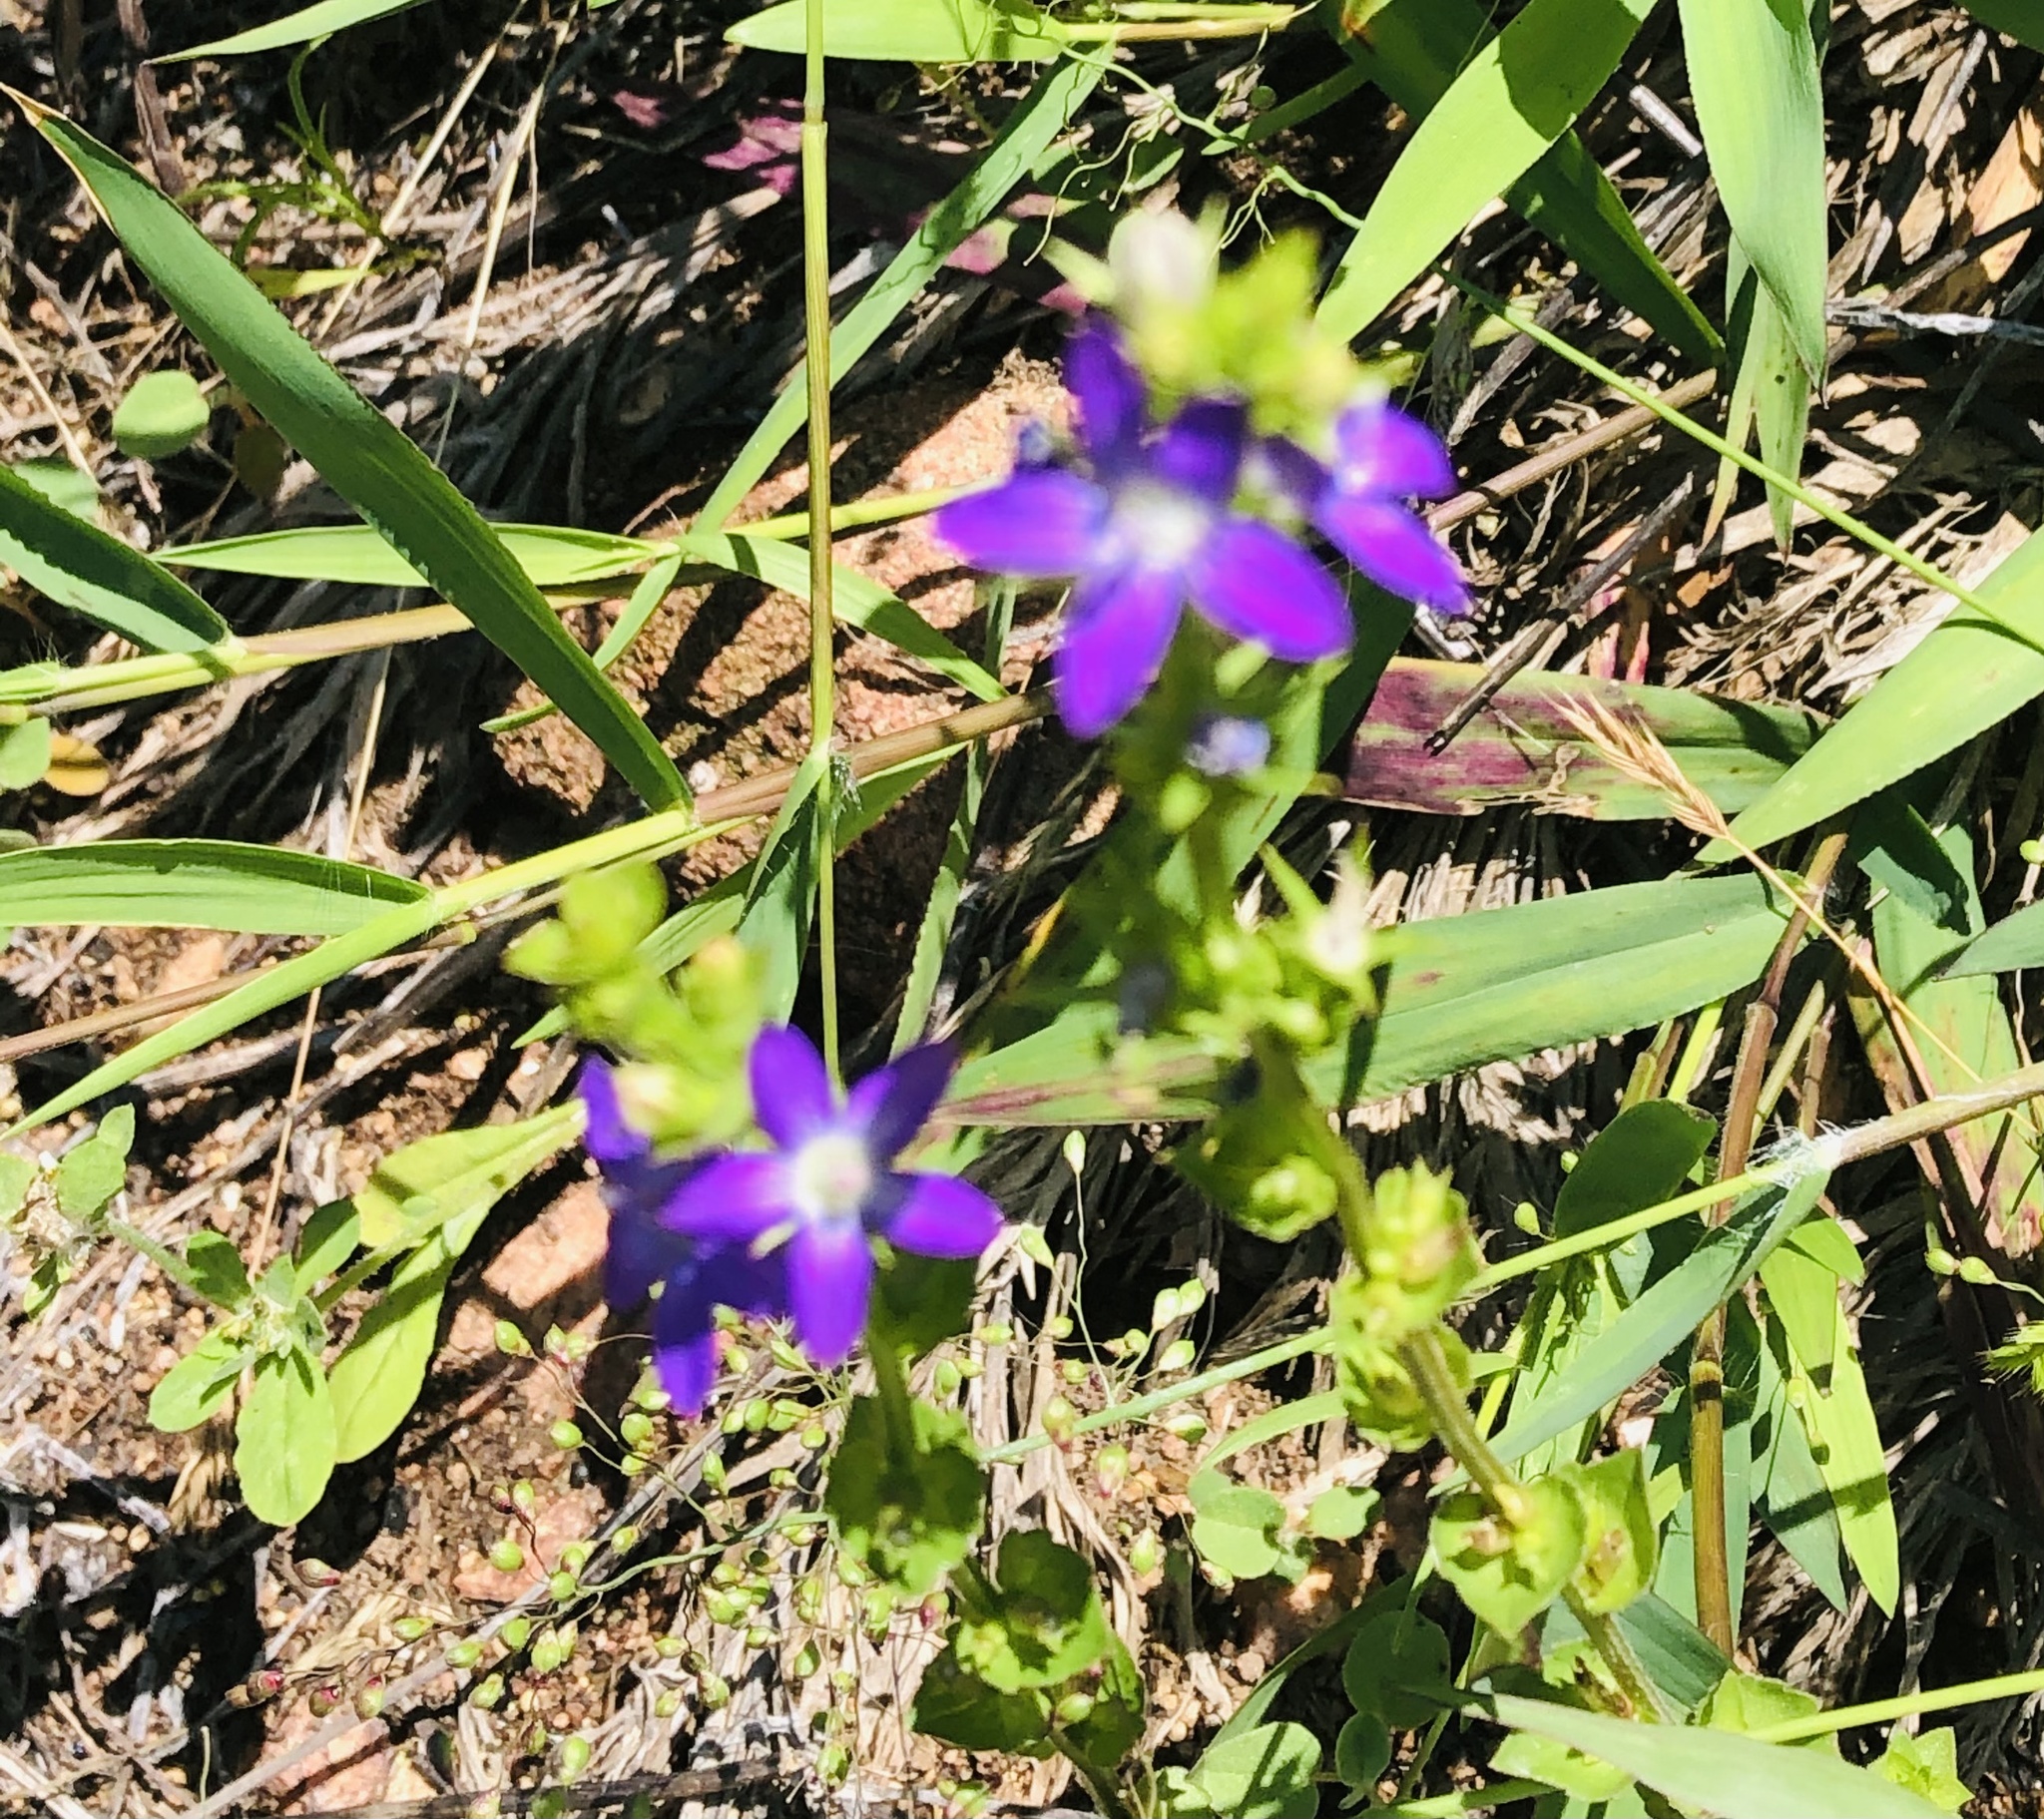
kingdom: Plantae
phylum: Tracheophyta
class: Magnoliopsida
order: Asterales
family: Campanulaceae
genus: Triodanis
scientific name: Triodanis
